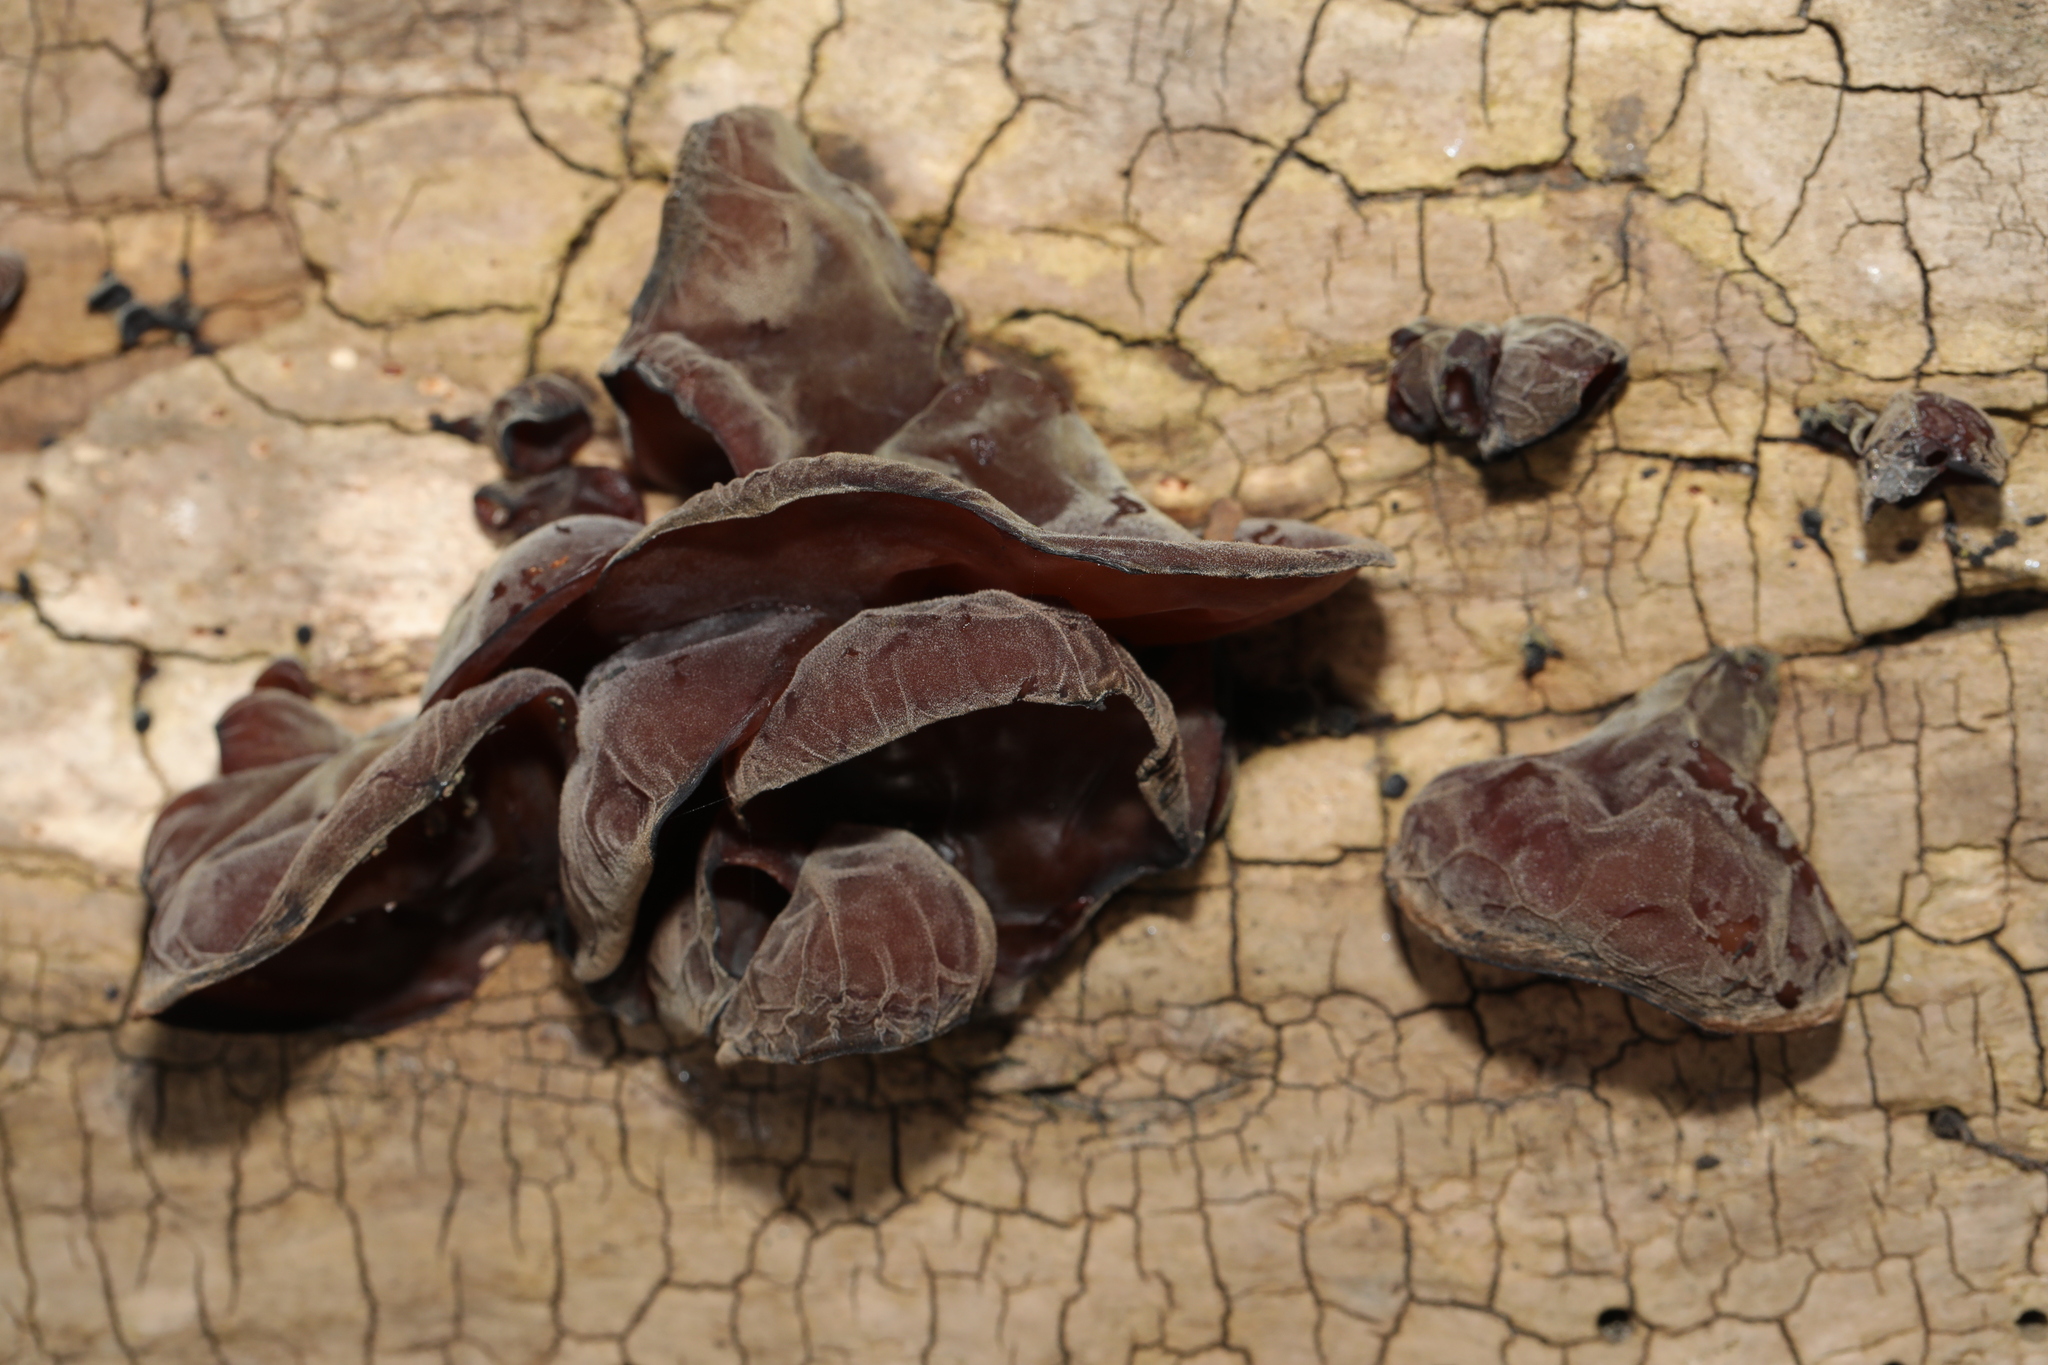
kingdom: Fungi
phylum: Basidiomycota
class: Agaricomycetes
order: Auriculariales
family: Auriculariaceae
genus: Auricularia
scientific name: Auricularia auricula-judae
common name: Jelly ear
